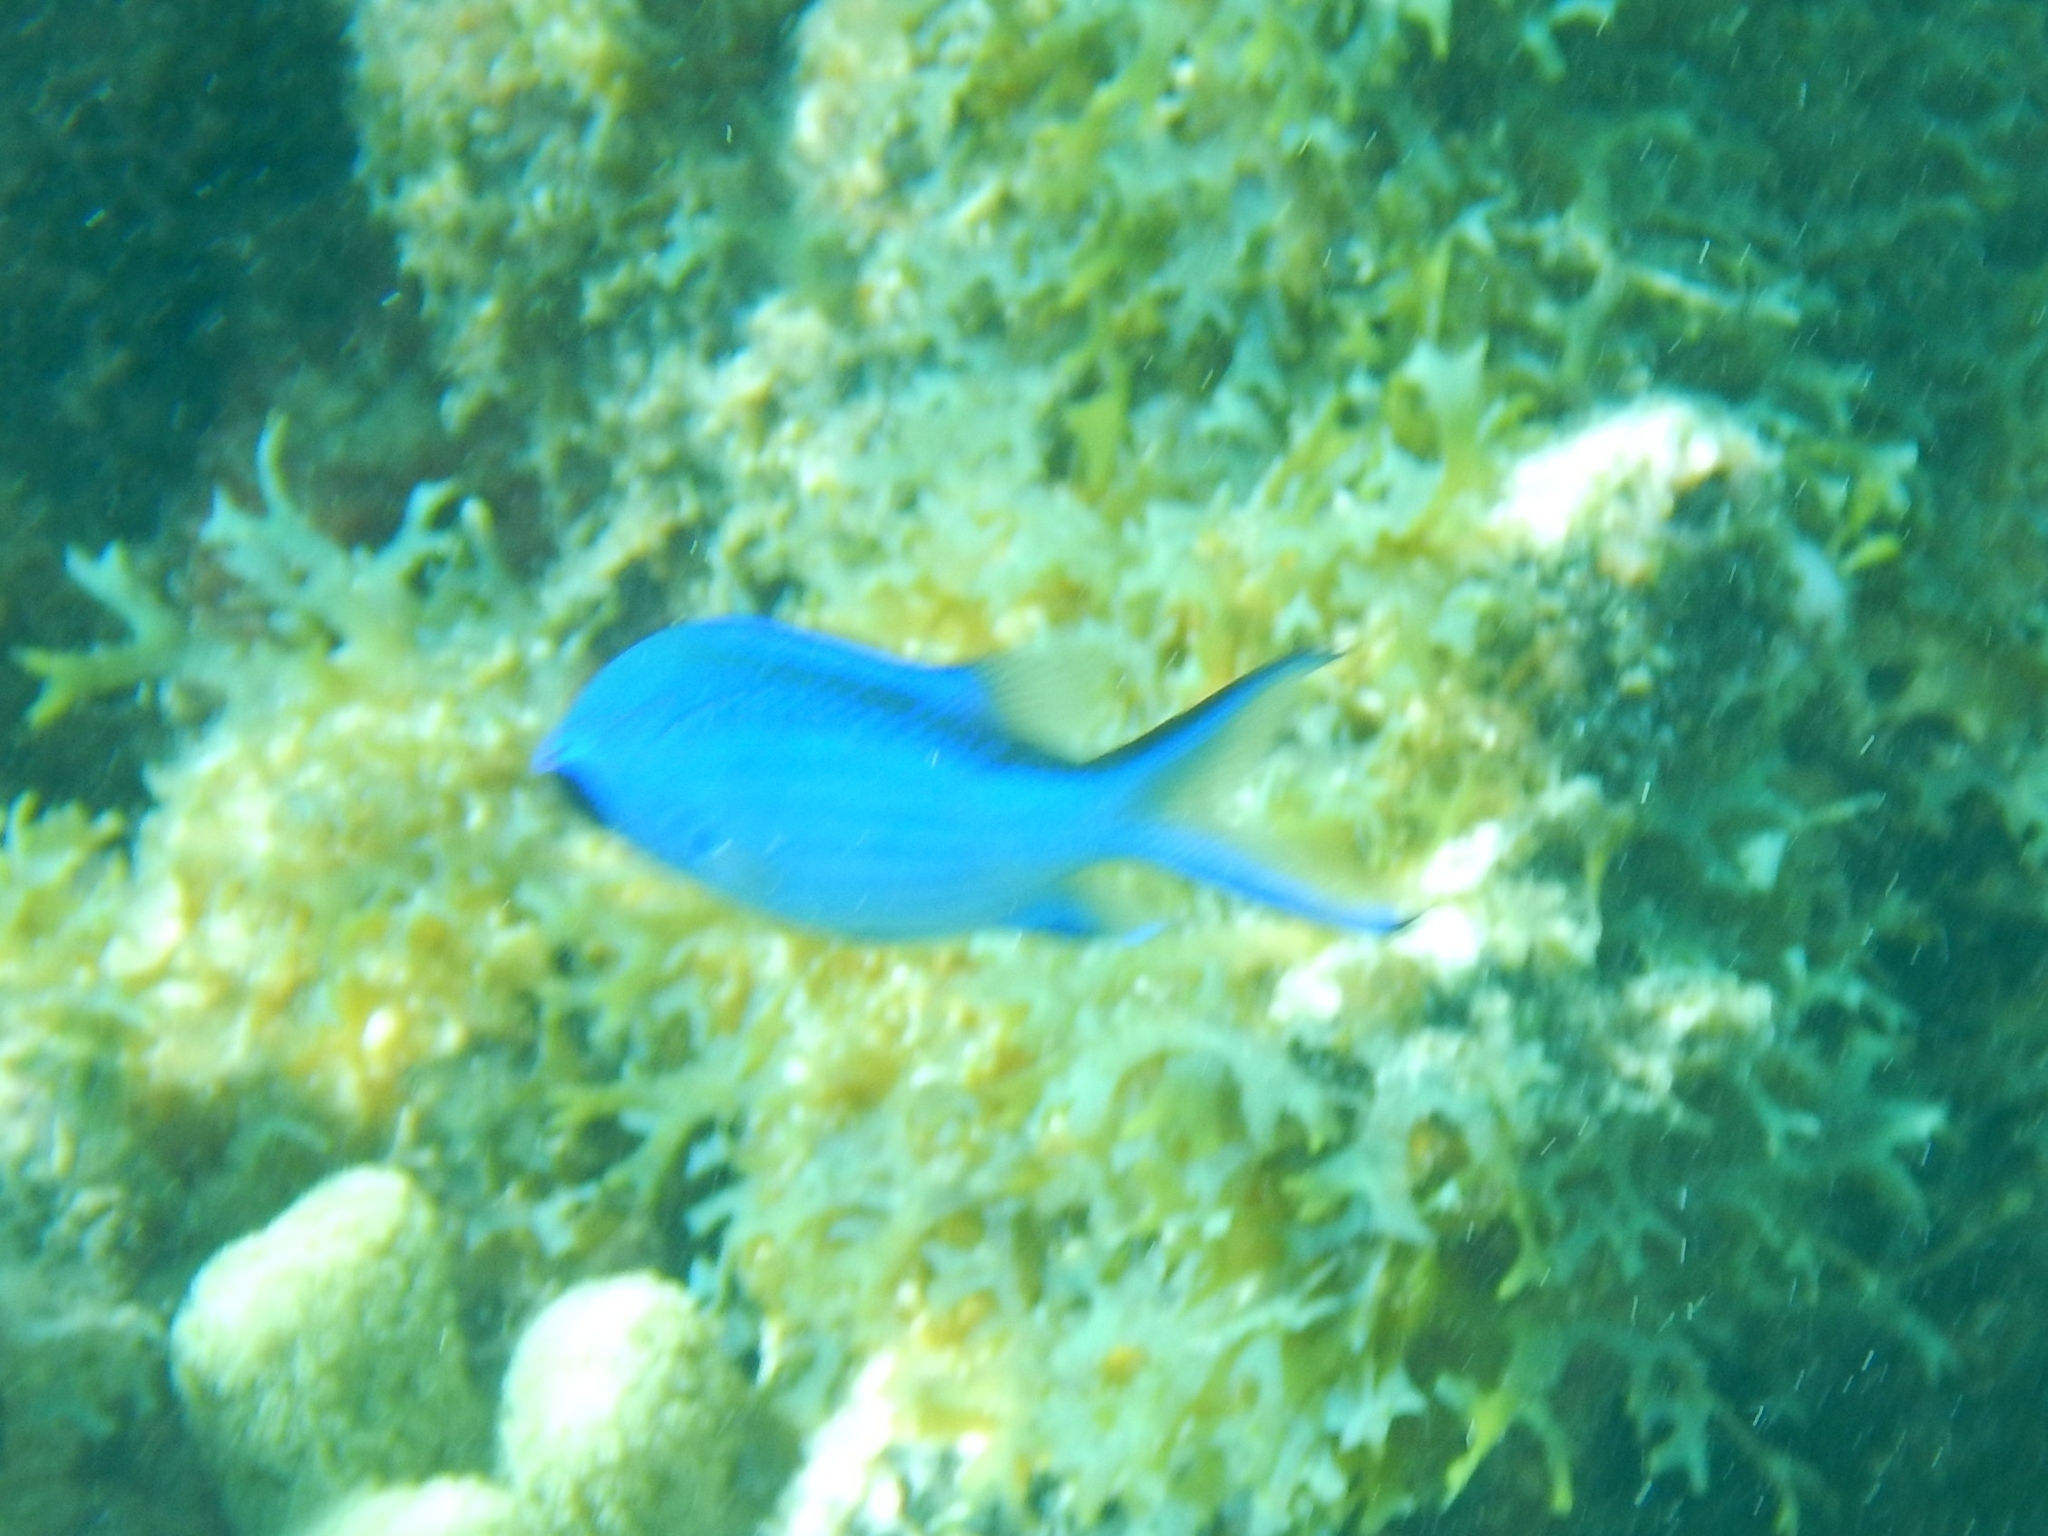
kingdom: Animalia
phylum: Chordata
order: Perciformes
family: Pomacentridae
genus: Chromis
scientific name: Chromis cyanea
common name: Blue chromis
